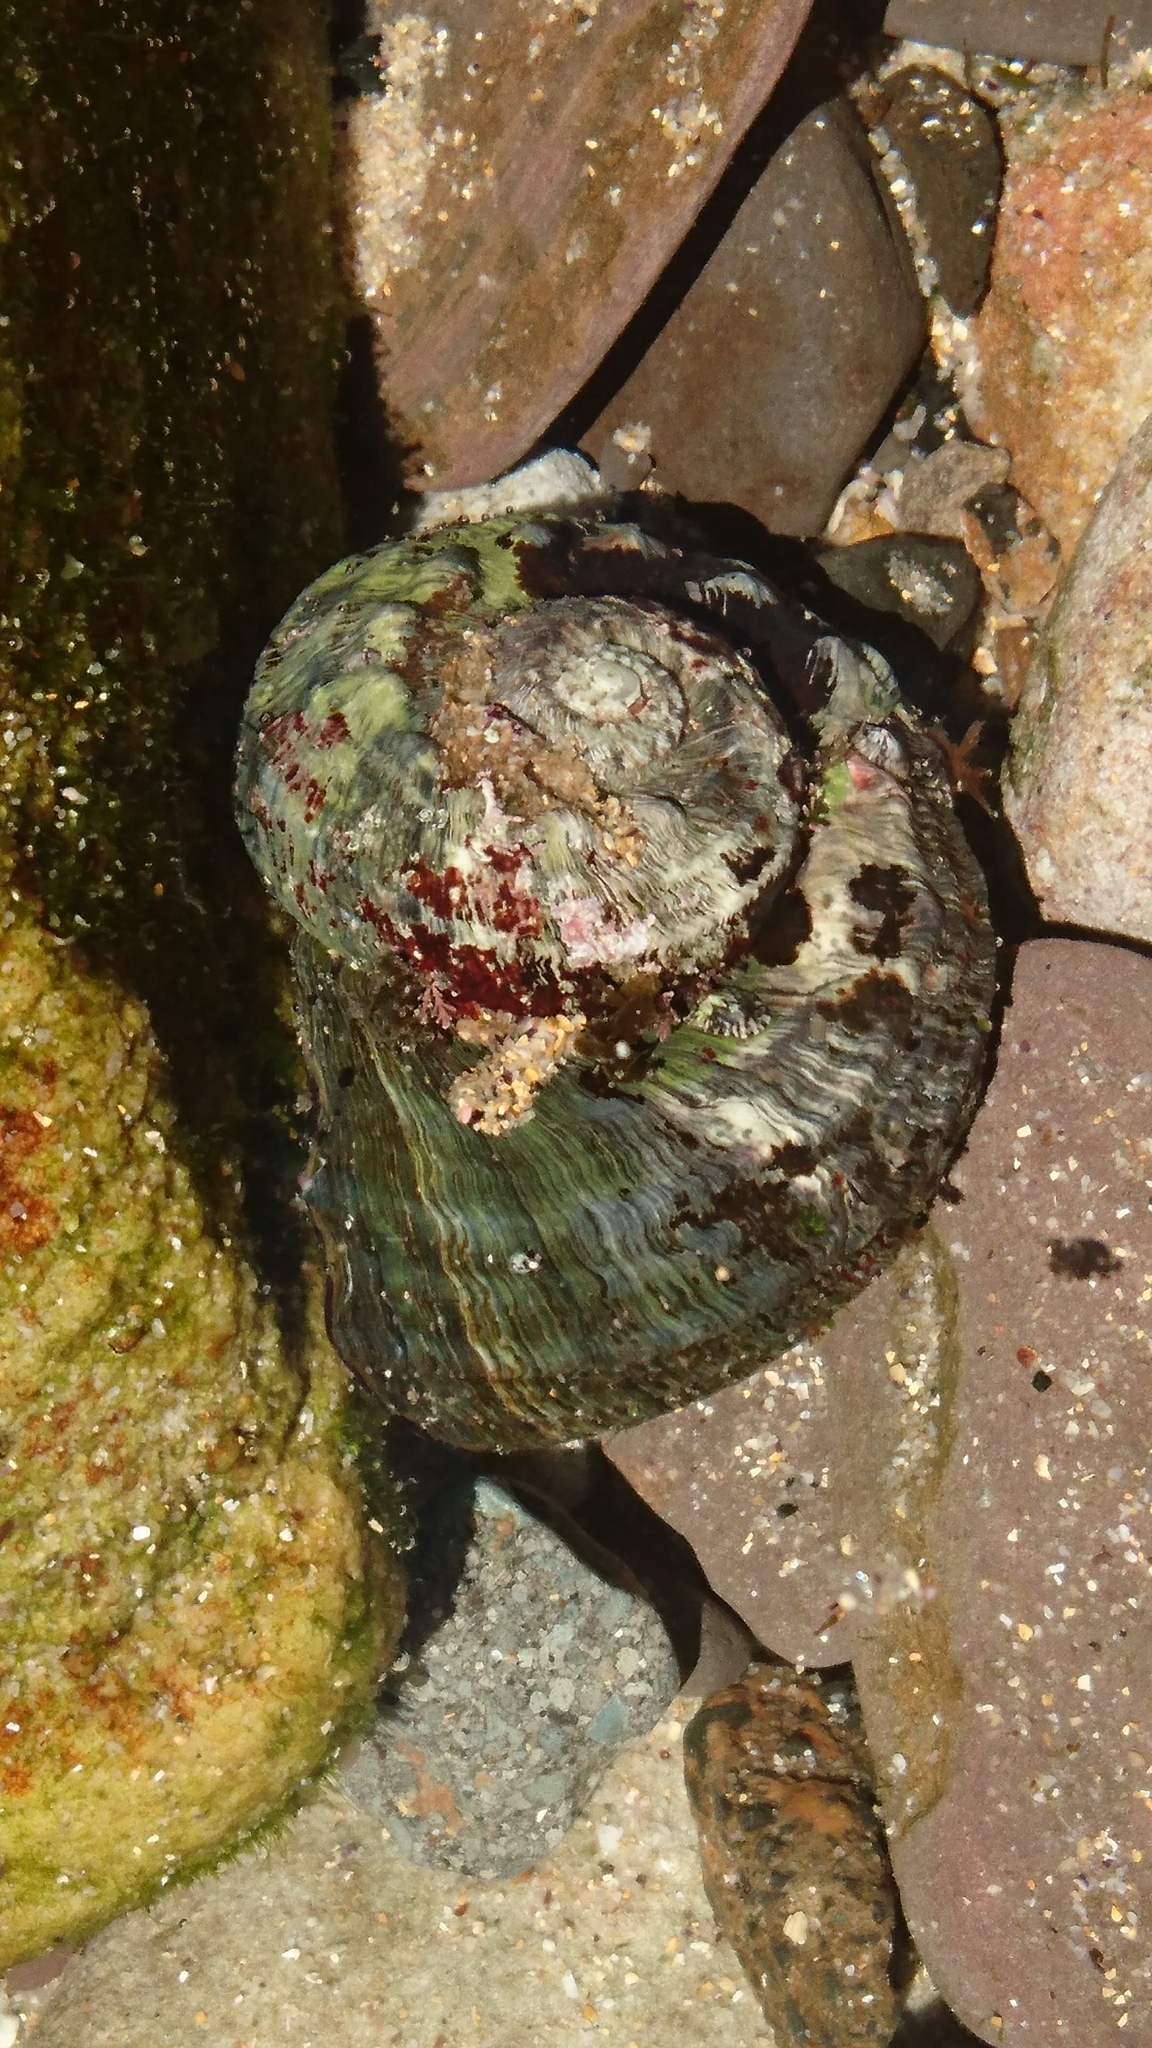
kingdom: Animalia
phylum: Mollusca
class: Gastropoda
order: Trochida
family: Turbinidae
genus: Lunella
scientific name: Lunella torquata
